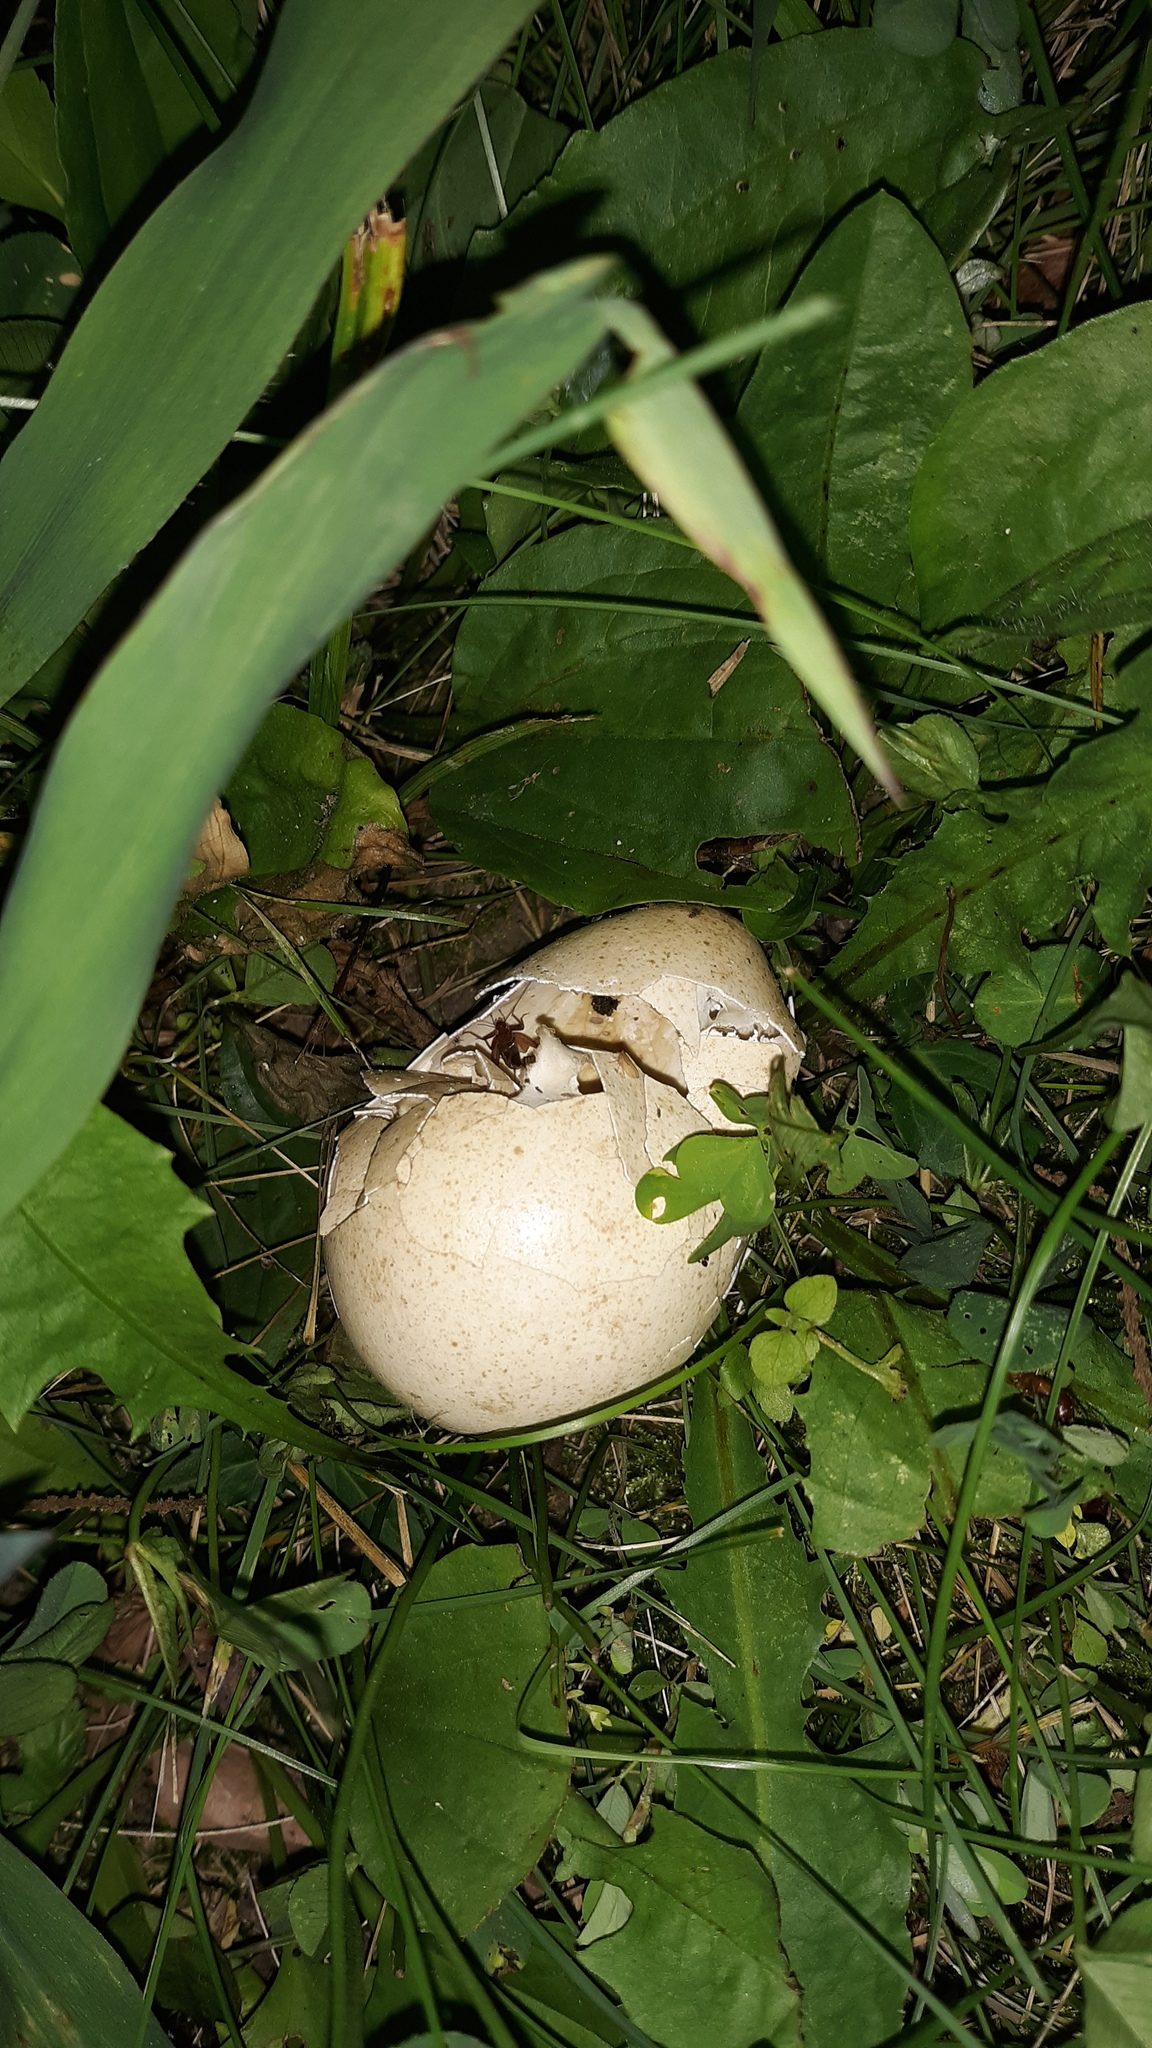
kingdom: Animalia
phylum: Chordata
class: Aves
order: Galliformes
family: Phasianidae
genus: Meleagris
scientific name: Meleagris gallopavo
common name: Wild turkey
